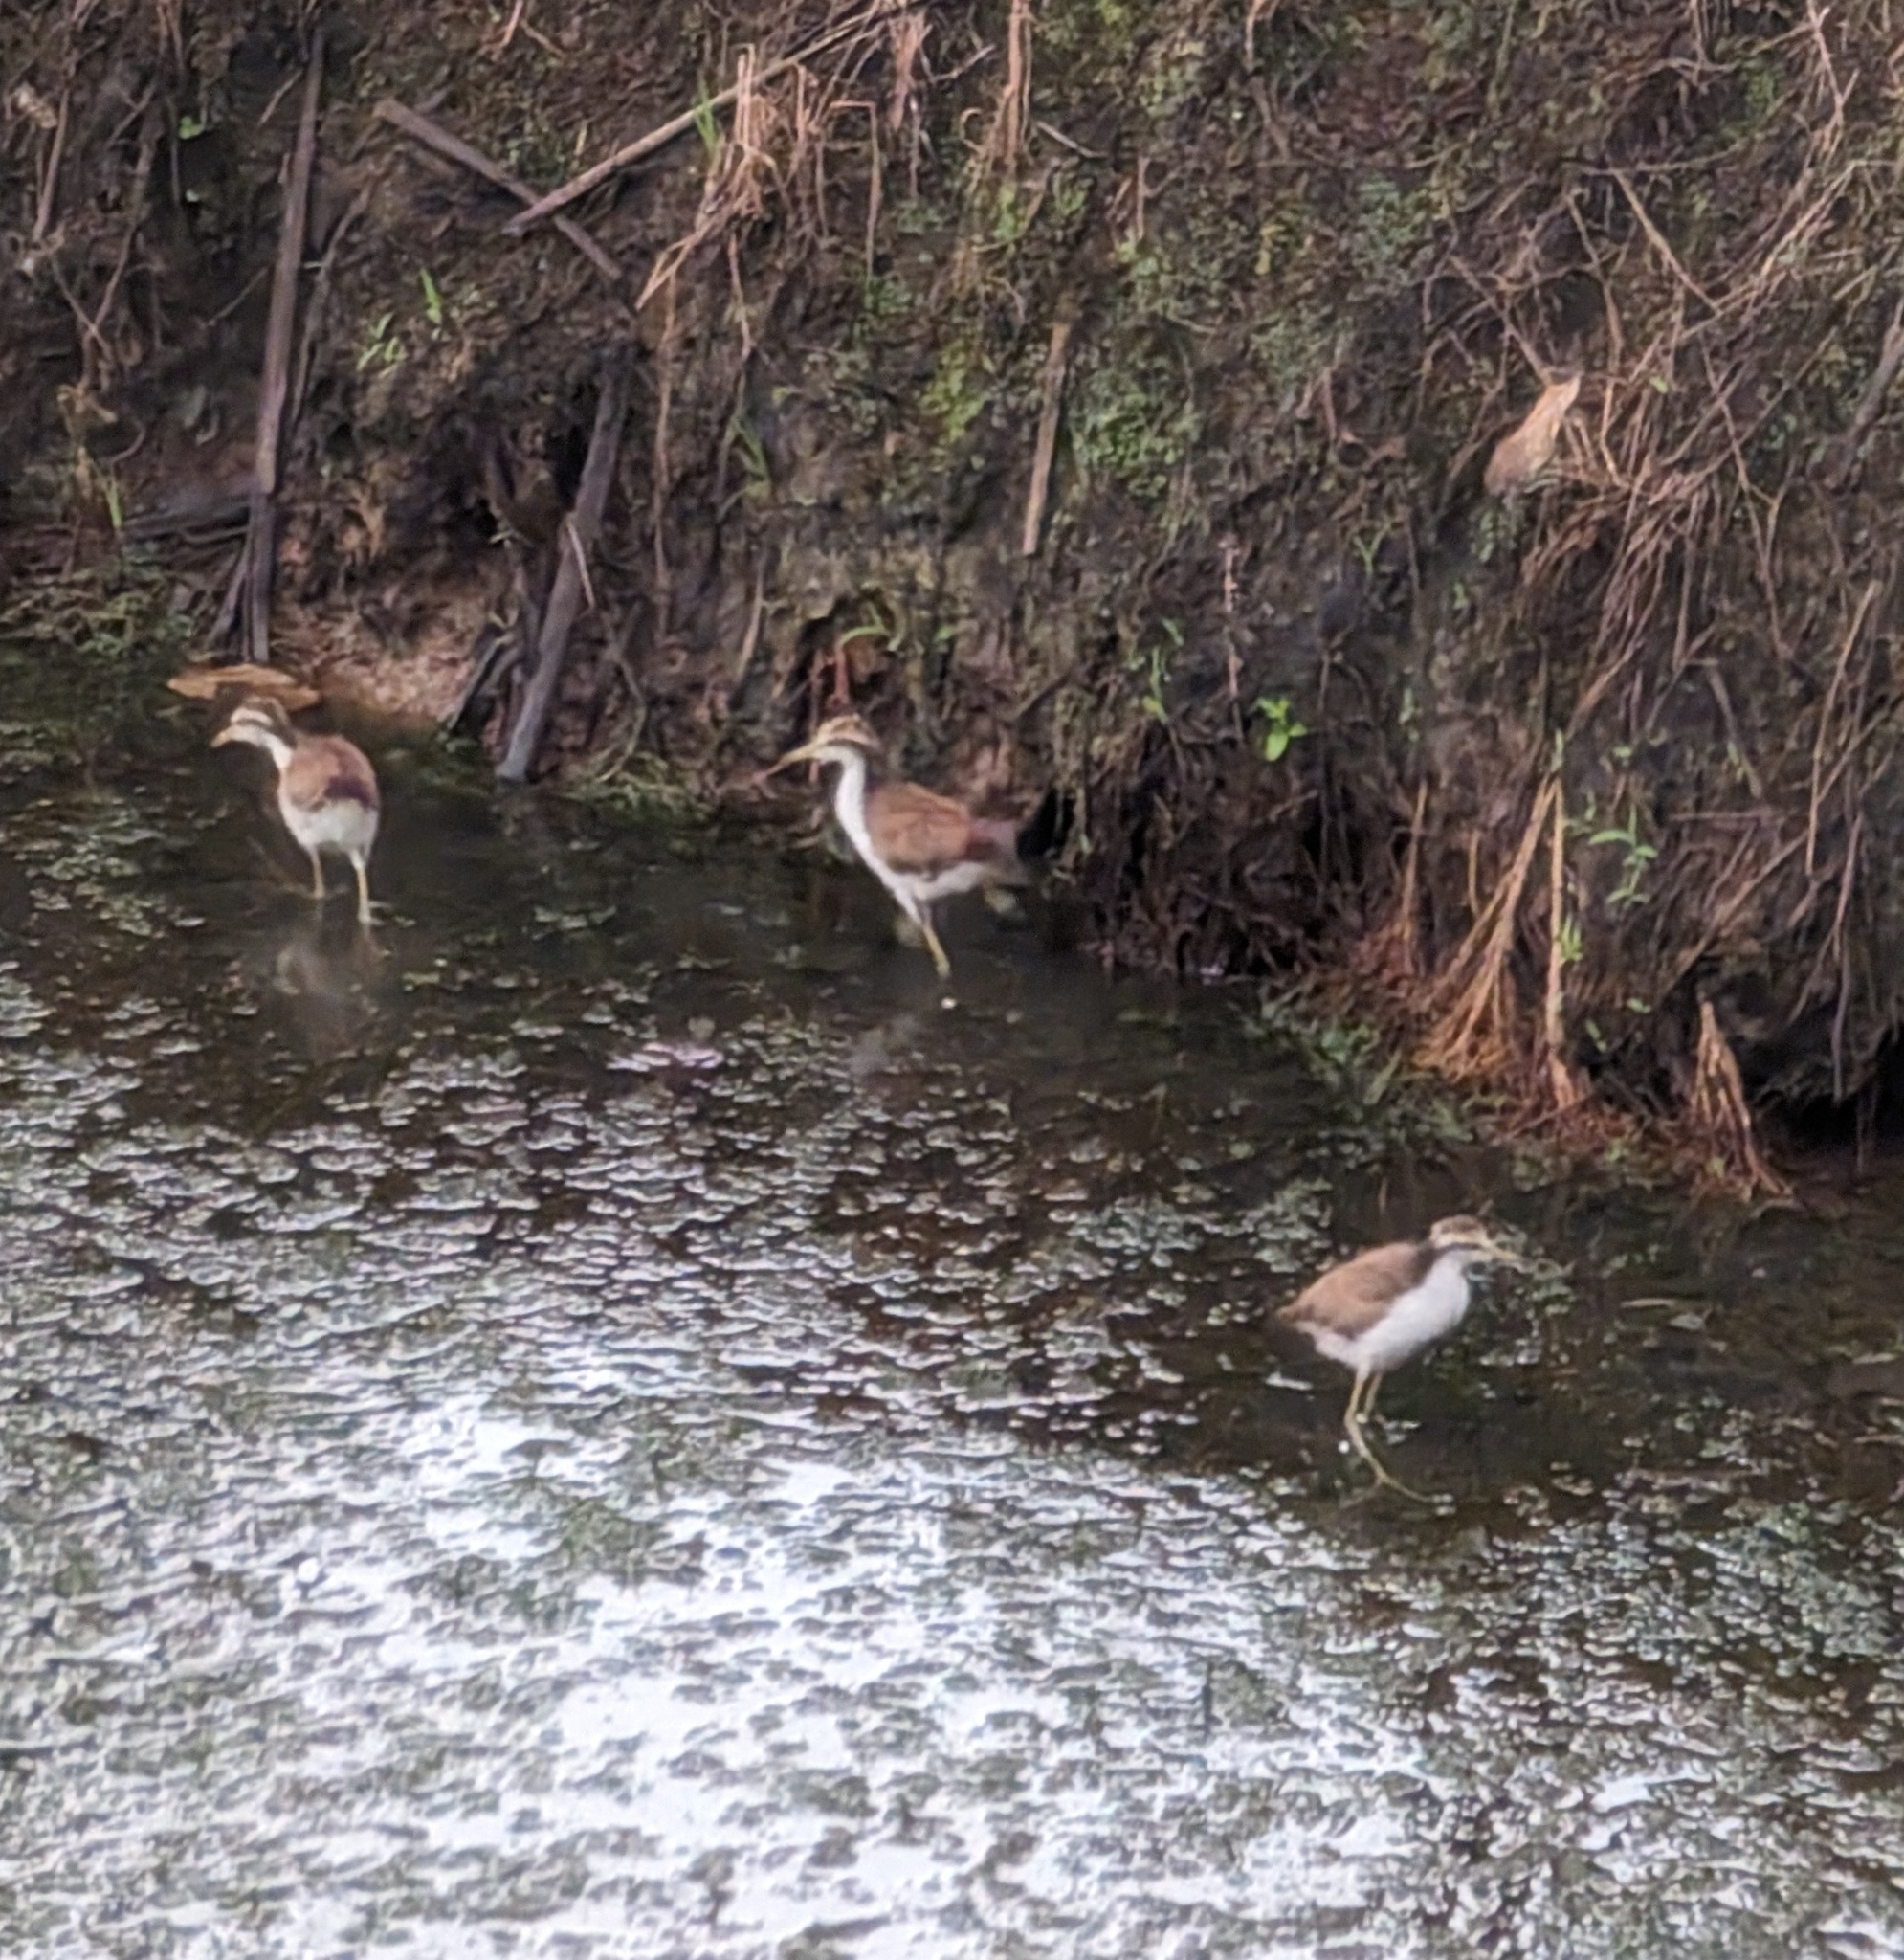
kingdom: Animalia
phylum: Chordata
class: Aves
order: Charadriiformes
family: Jacanidae
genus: Jacana
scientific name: Jacana spinosa
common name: Northern jacana
